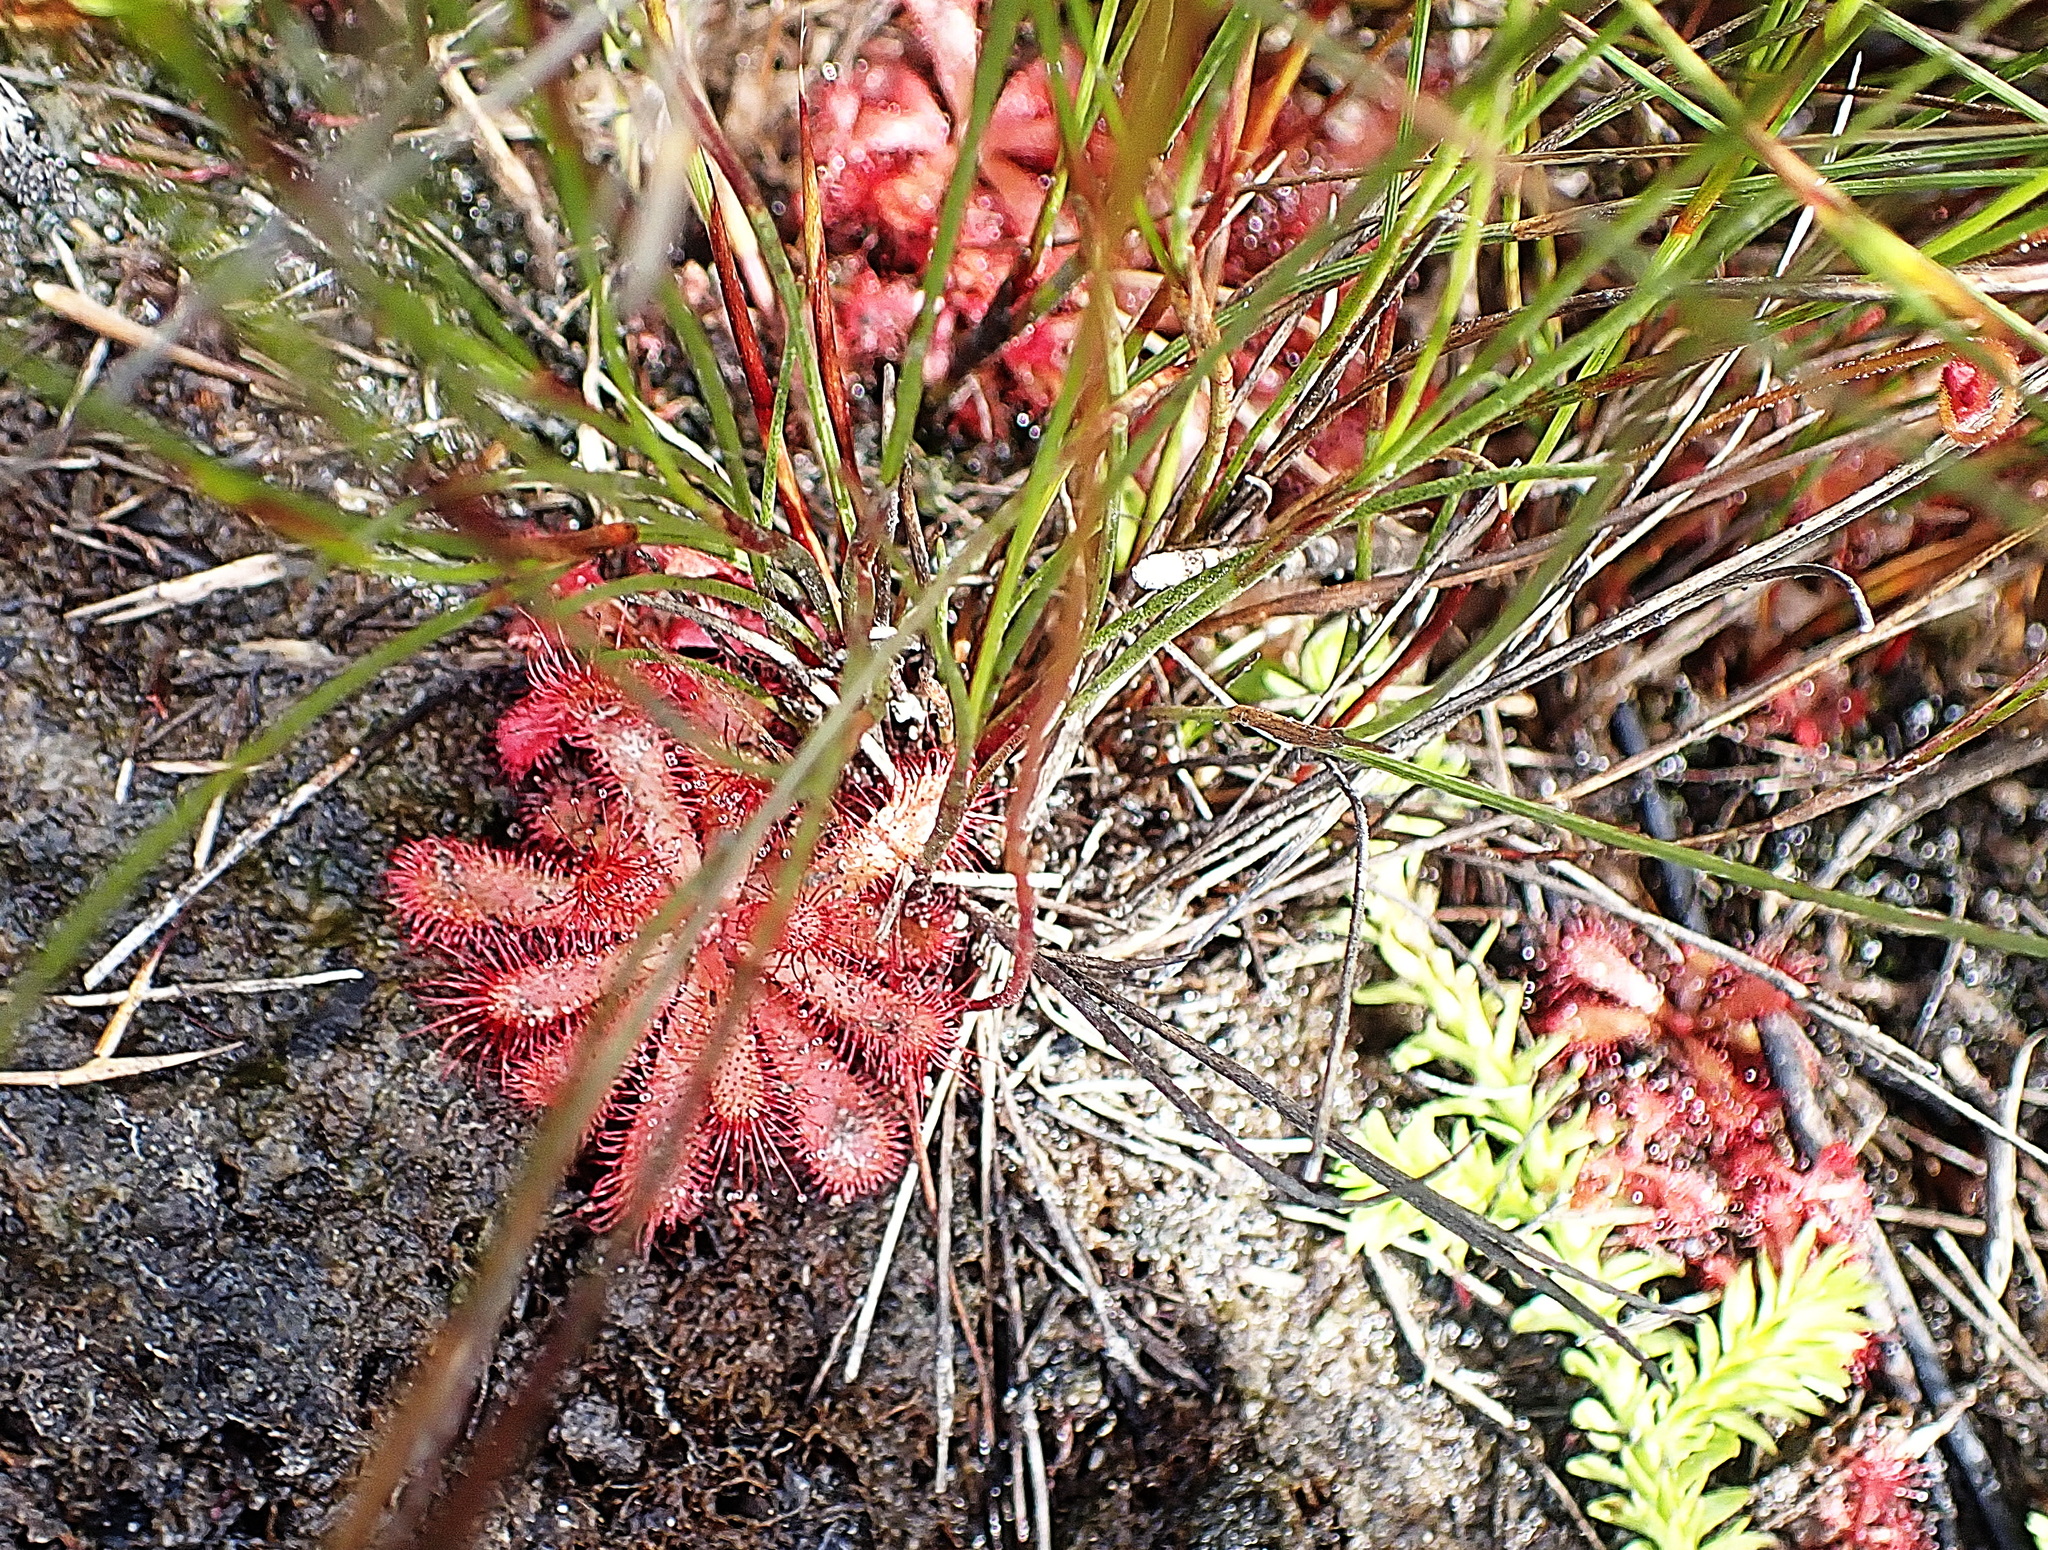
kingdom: Plantae
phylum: Tracheophyta
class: Magnoliopsida
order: Caryophyllales
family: Droseraceae
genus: Drosera
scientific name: Drosera aliciae
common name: Alice sundew
